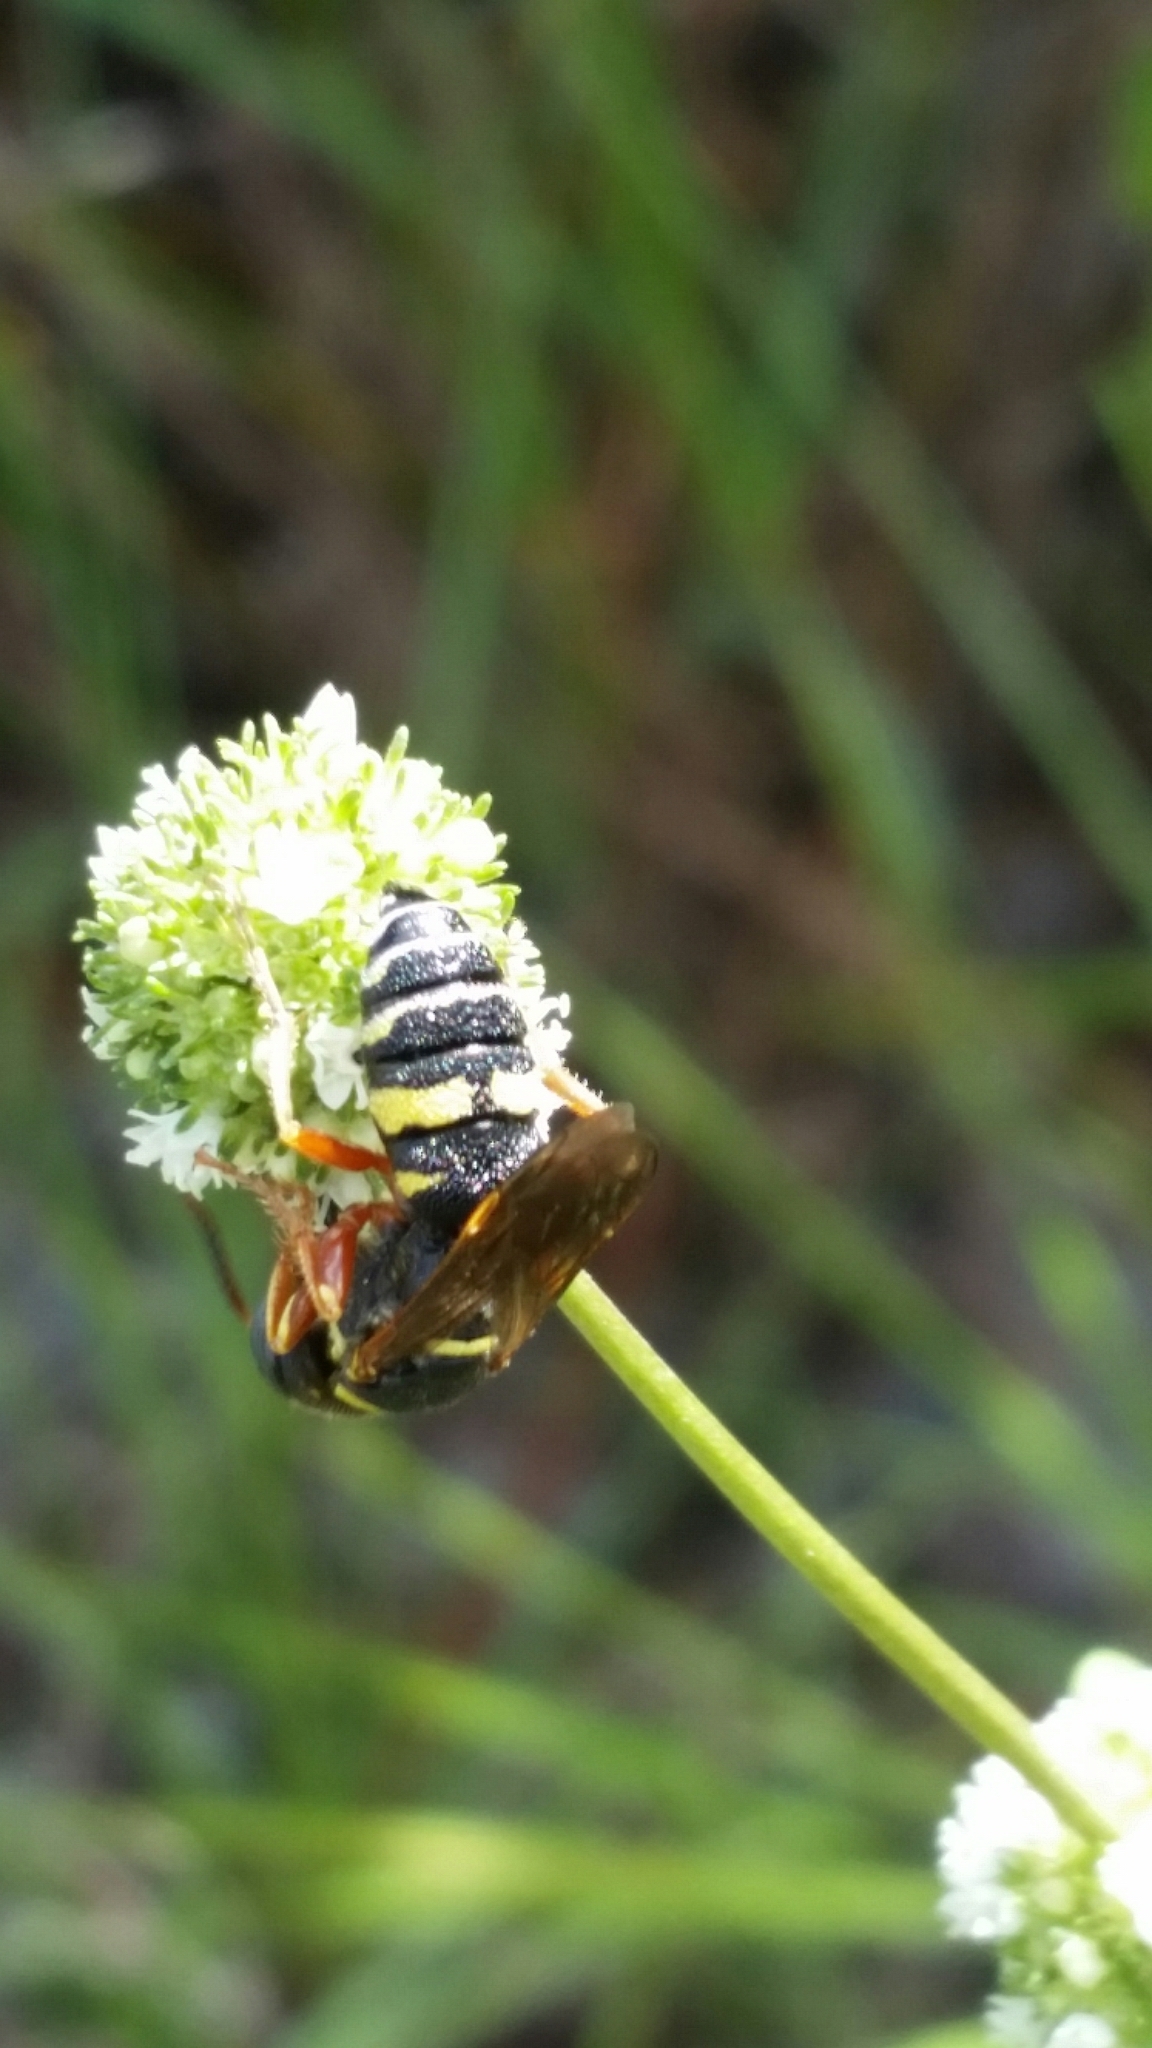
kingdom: Animalia
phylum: Arthropoda
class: Insecta
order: Hymenoptera
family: Crabronidae
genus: Philanthus
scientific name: Philanthus ventilabris
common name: Bee-killer wasp
